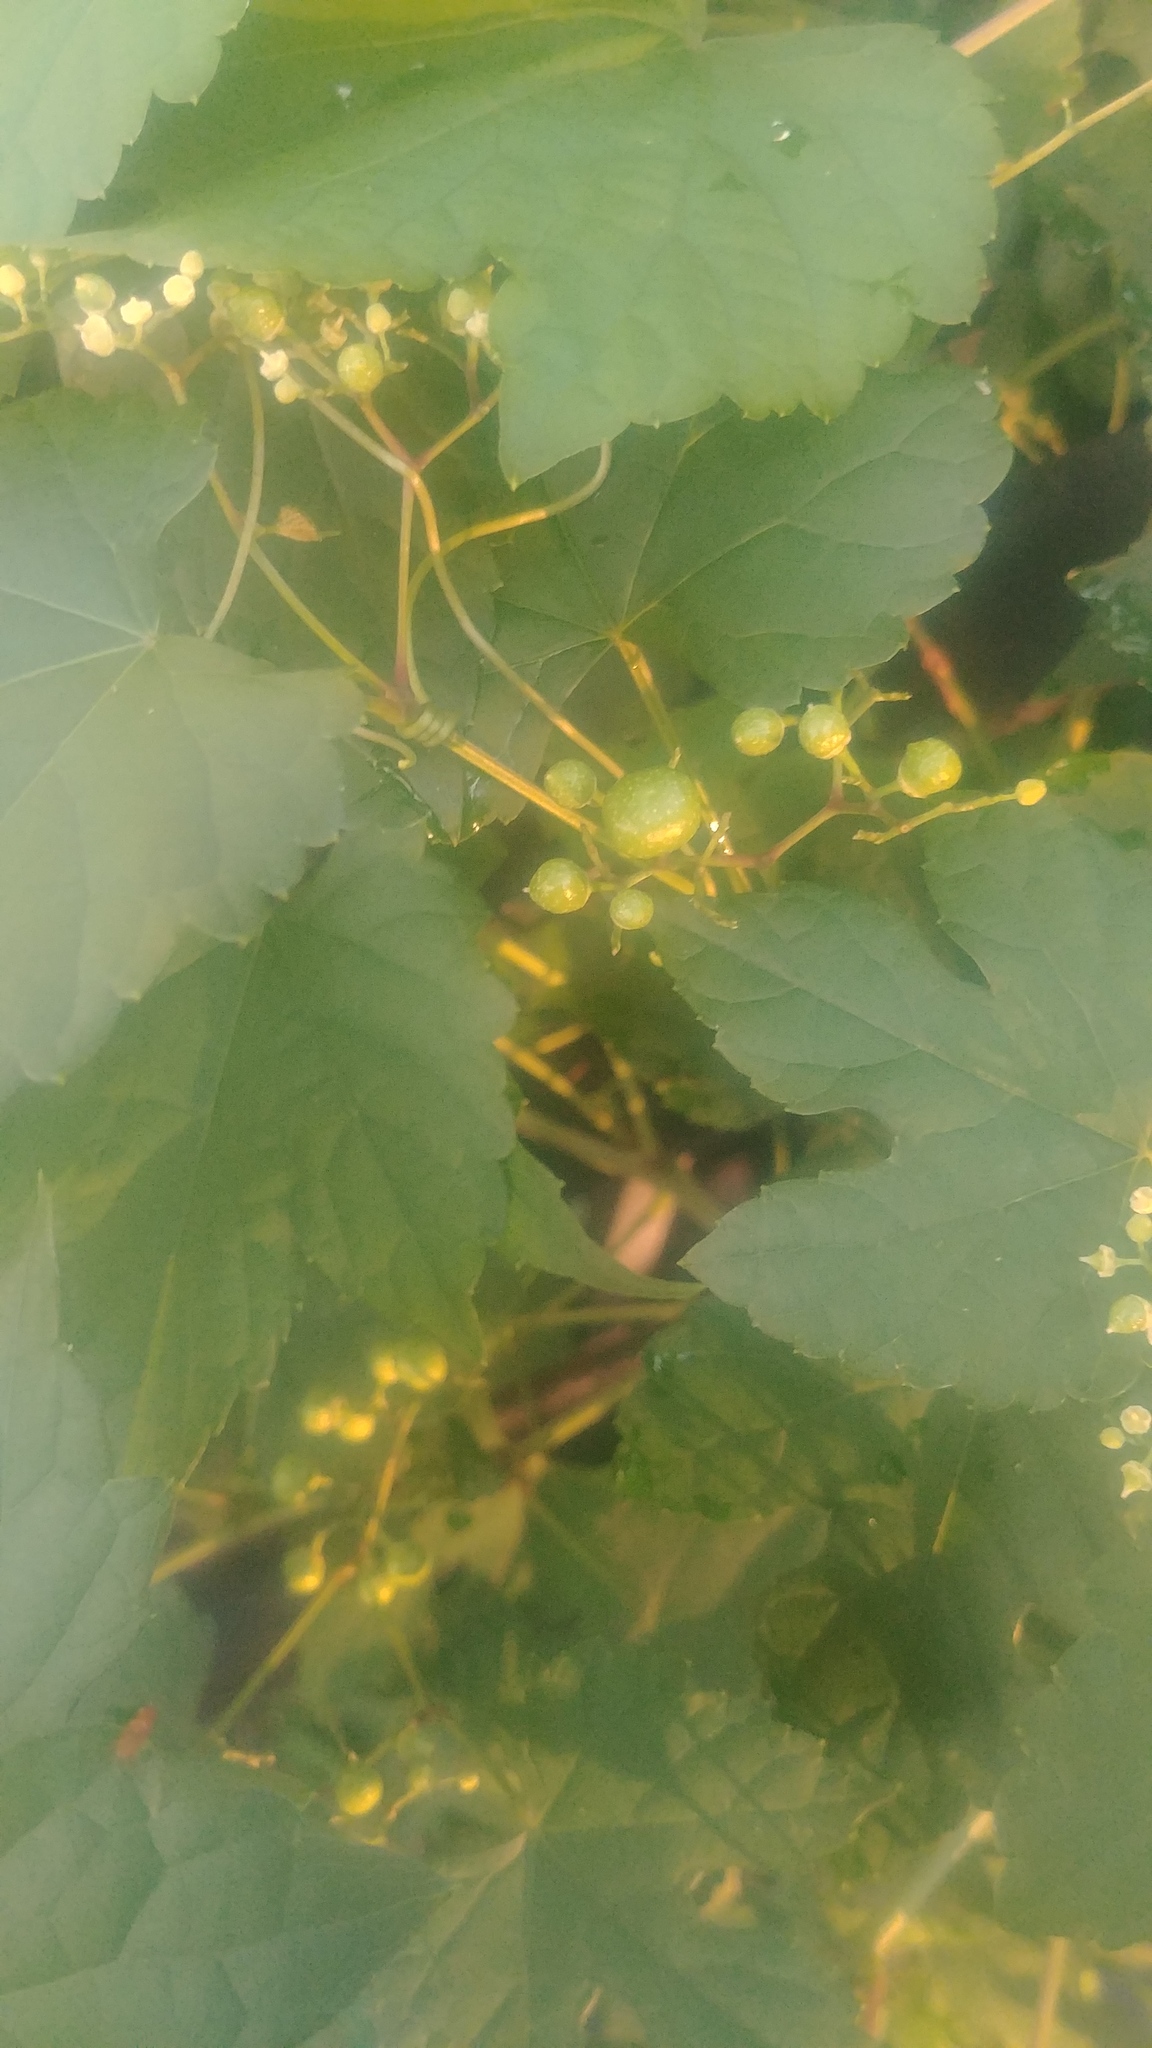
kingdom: Plantae
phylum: Tracheophyta
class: Magnoliopsida
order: Vitales
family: Vitaceae
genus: Ampelopsis
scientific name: Ampelopsis glandulosa
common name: Amur peppervine
